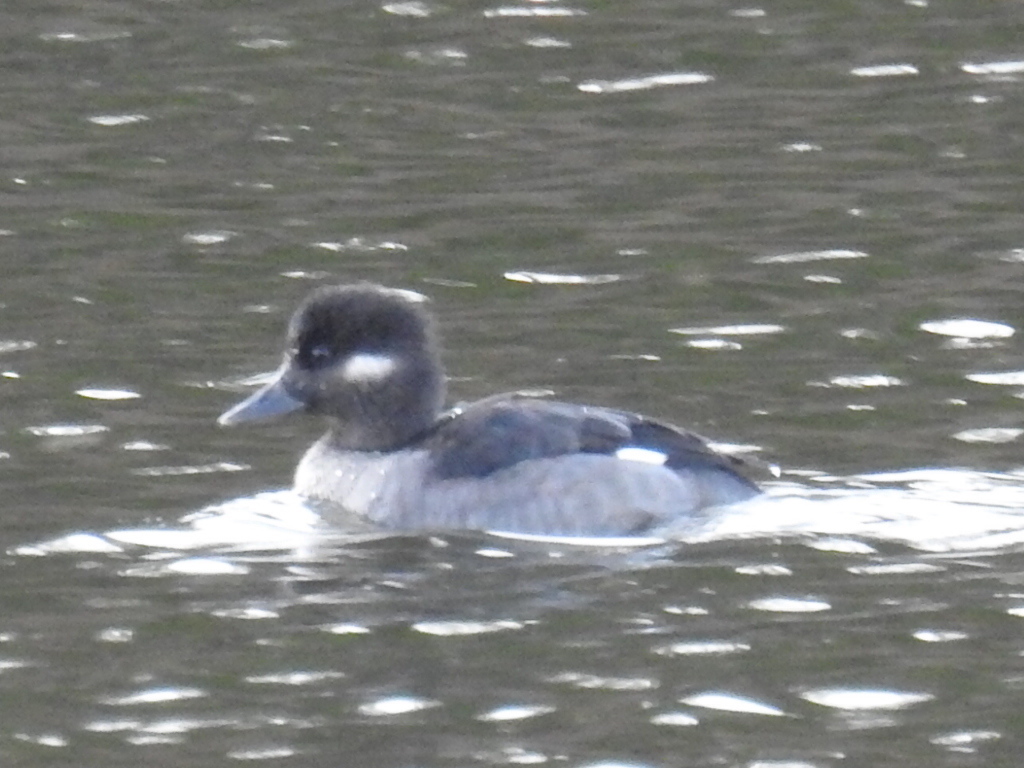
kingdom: Animalia
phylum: Chordata
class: Aves
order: Anseriformes
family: Anatidae
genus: Bucephala
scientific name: Bucephala albeola
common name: Bufflehead
